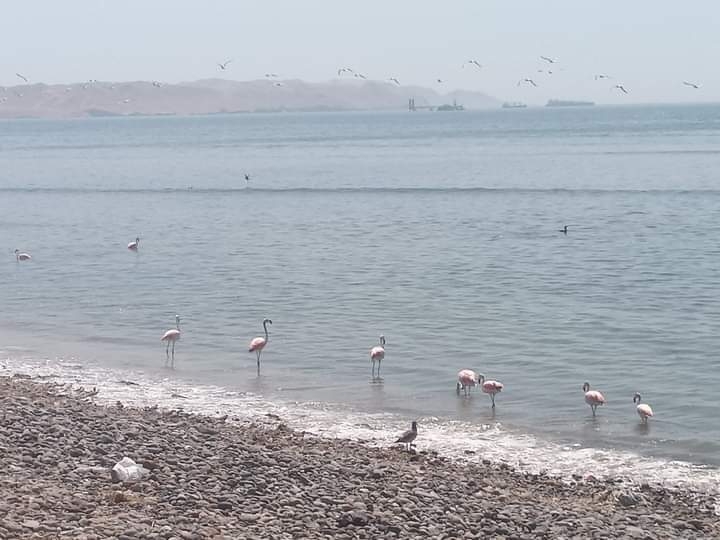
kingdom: Animalia
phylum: Chordata
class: Aves
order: Phoenicopteriformes
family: Phoenicopteridae
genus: Phoenicopterus
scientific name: Phoenicopterus chilensis
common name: Chilean flamingo
